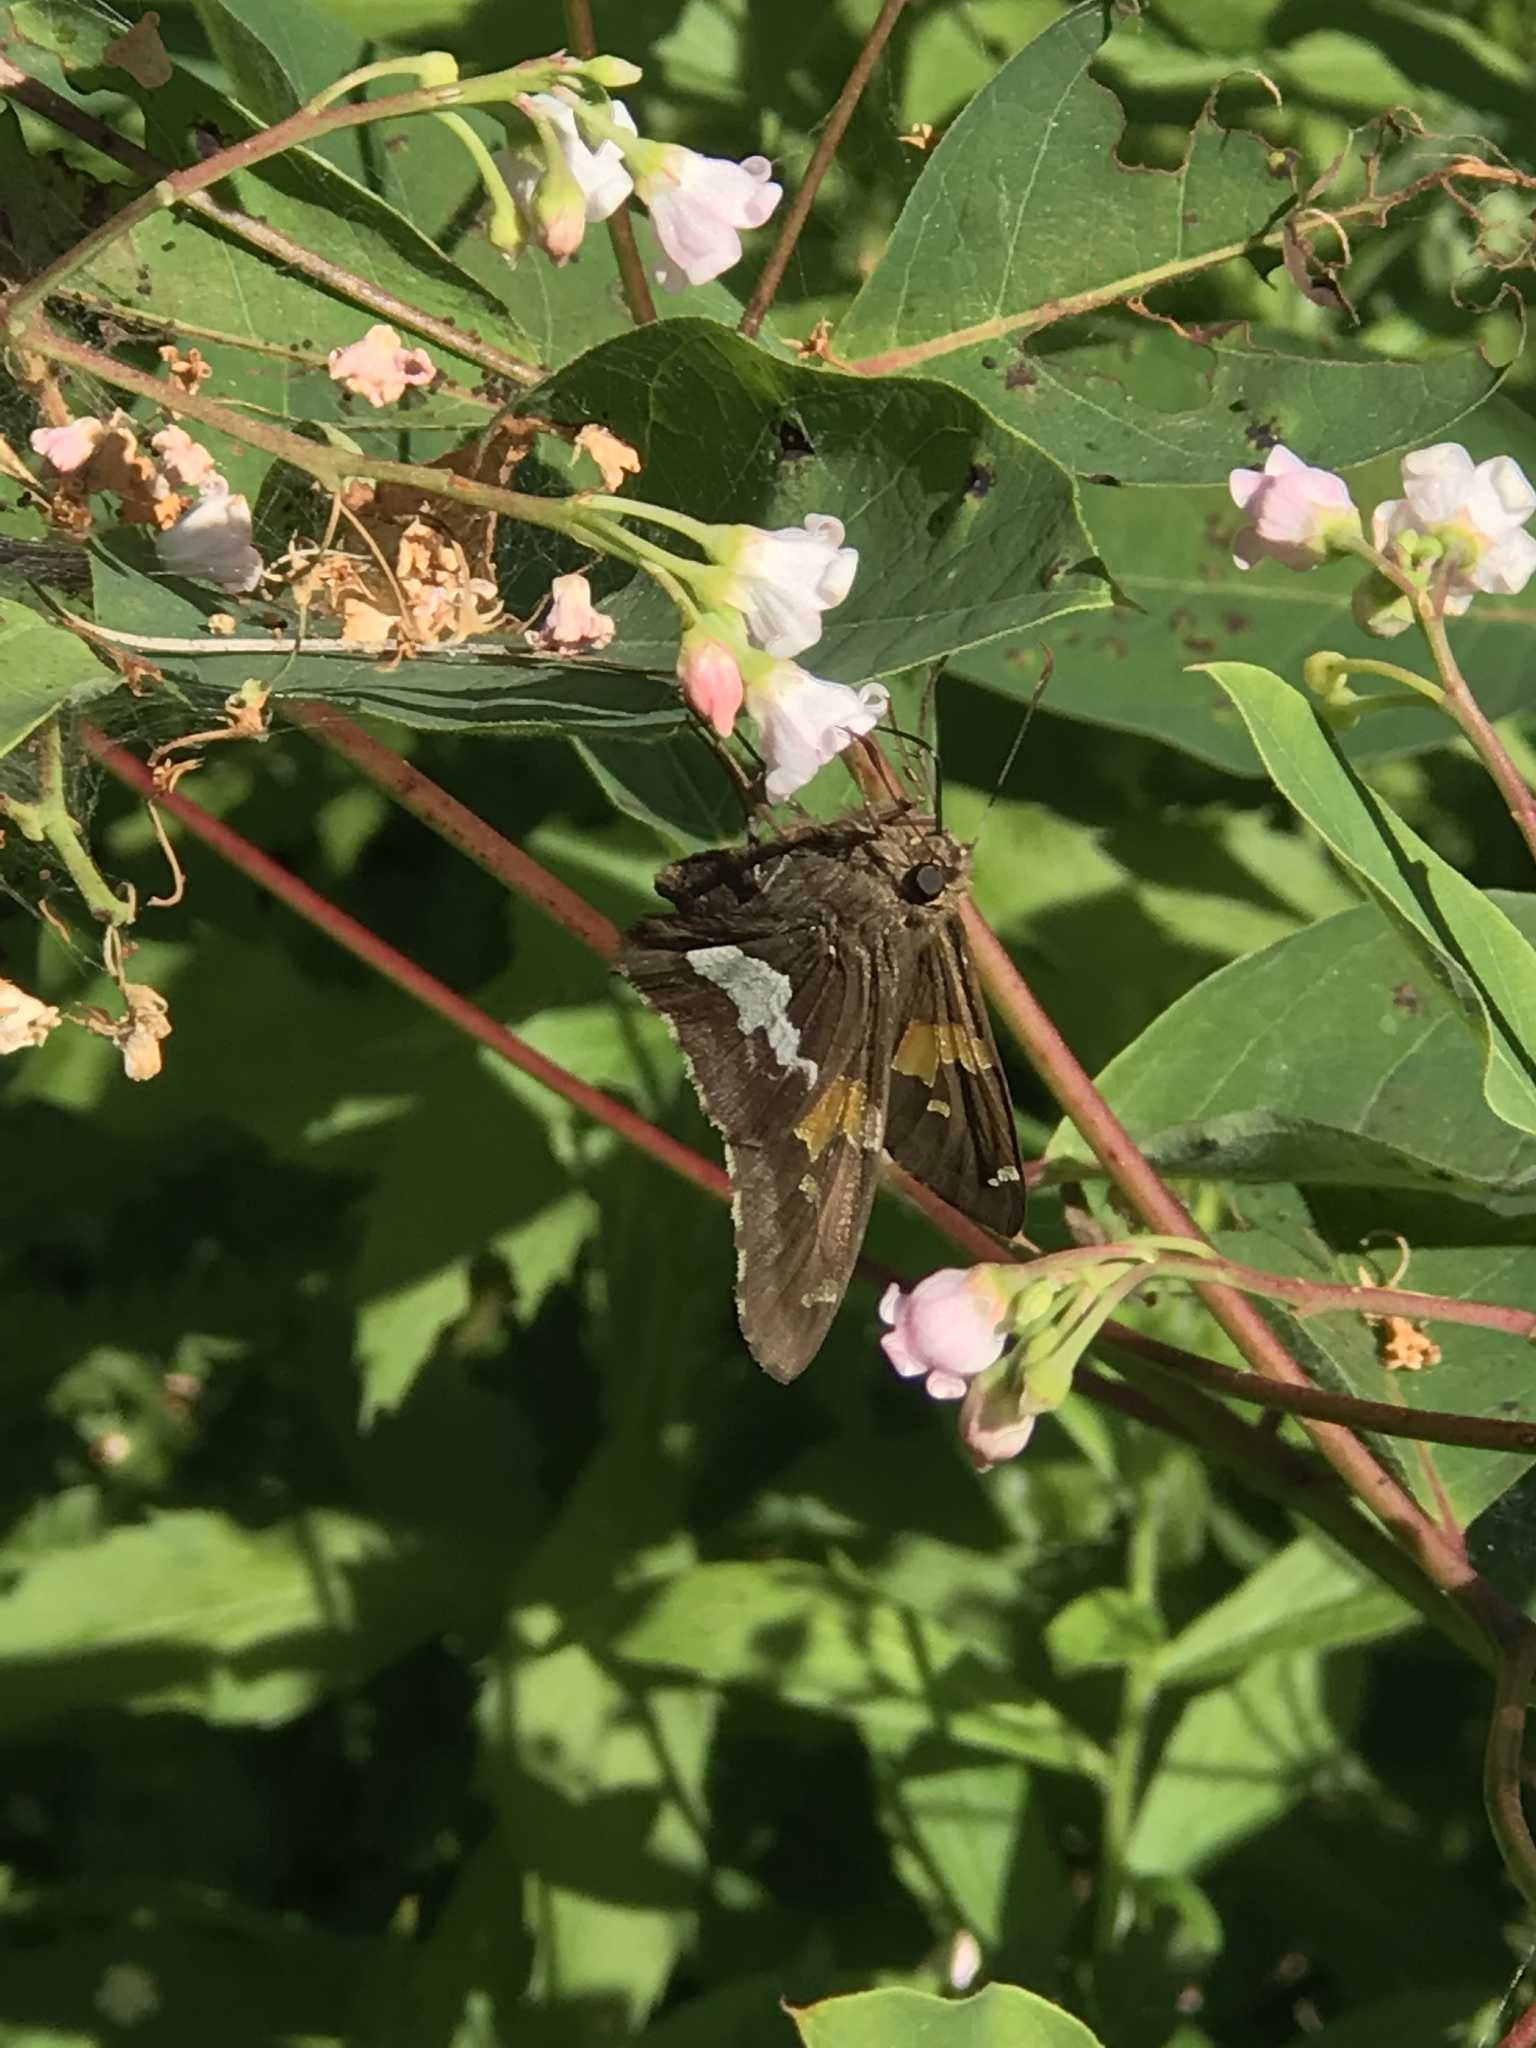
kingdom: Animalia
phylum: Arthropoda
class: Insecta
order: Lepidoptera
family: Hesperiidae
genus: Epargyreus
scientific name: Epargyreus clarus
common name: Silver-spotted skipper
